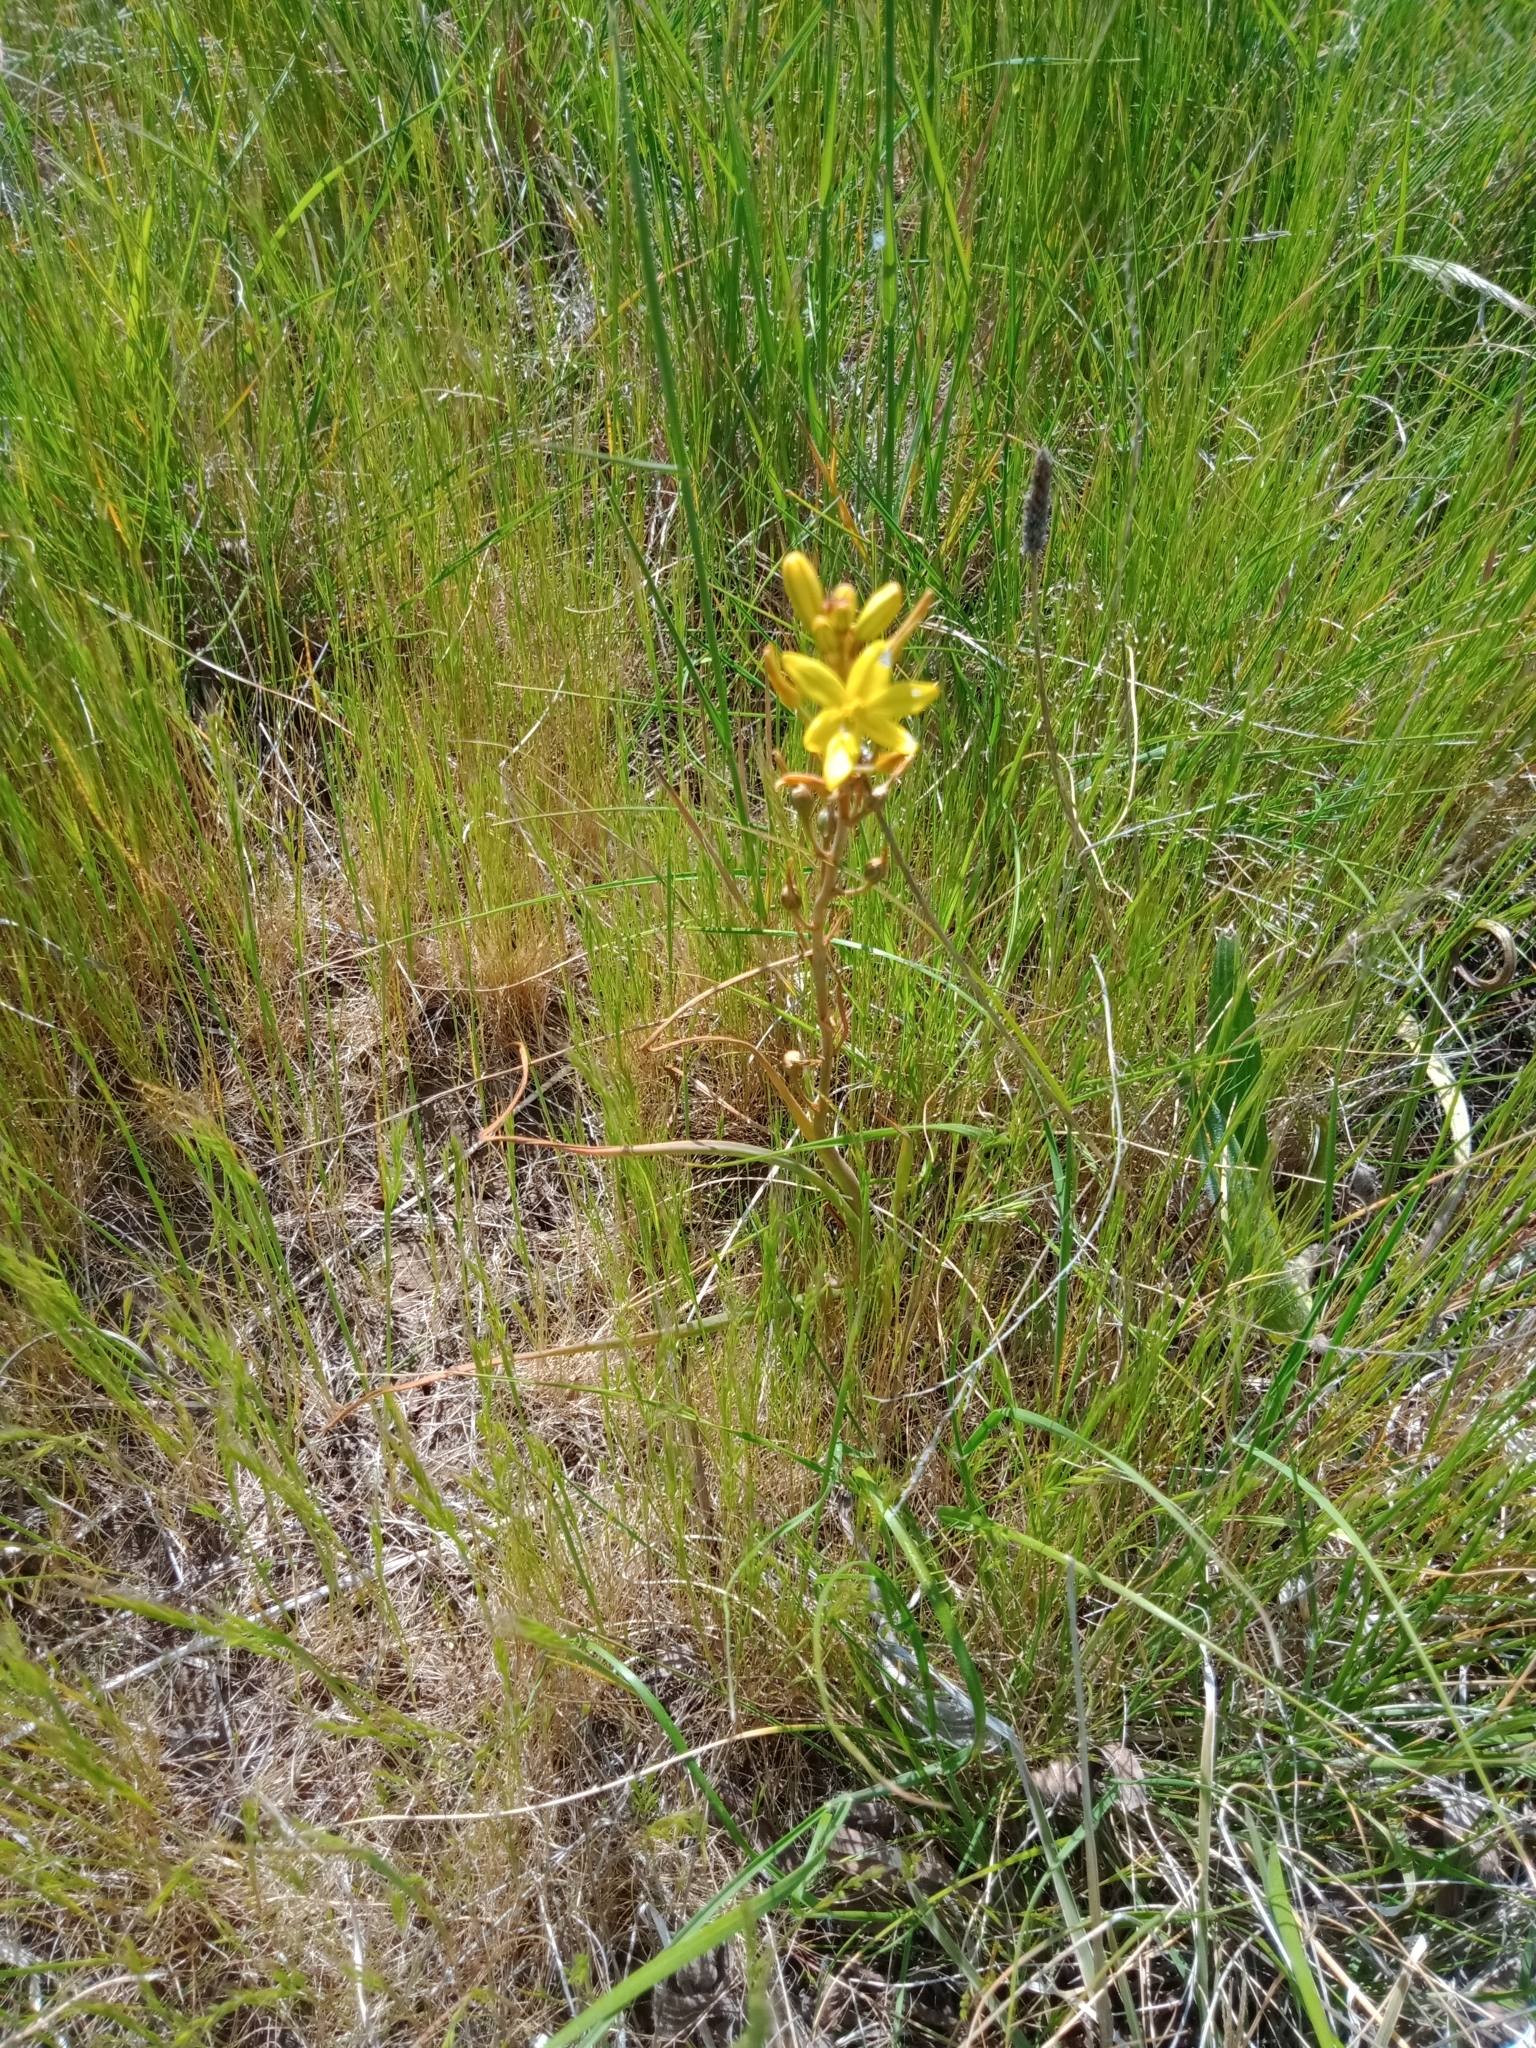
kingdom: Plantae
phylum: Tracheophyta
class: Liliopsida
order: Asparagales
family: Asphodelaceae
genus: Bulbine
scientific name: Bulbine bulbosa
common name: Golden-lily
